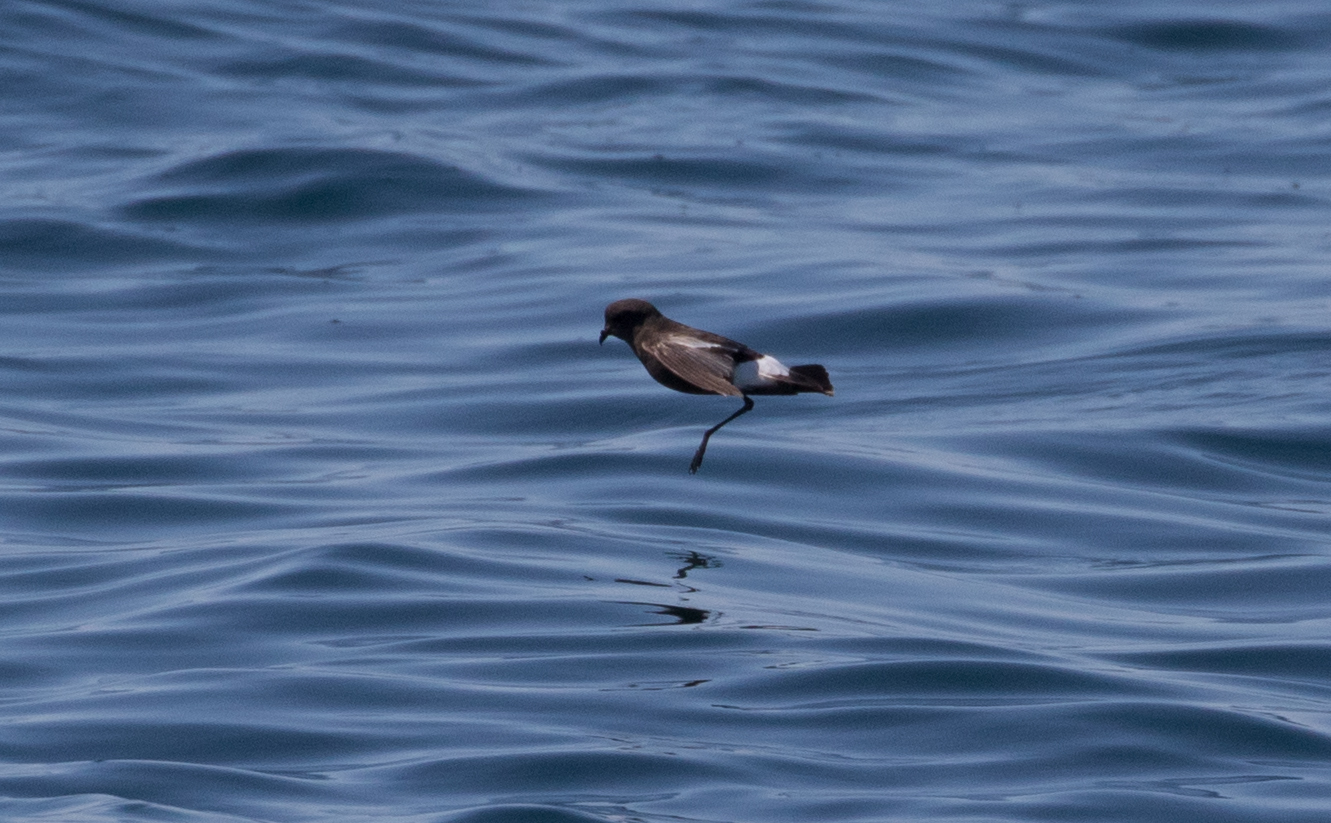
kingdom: Animalia
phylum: Chordata
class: Aves
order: Procellariiformes
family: Hydrobatidae
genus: Oceanites
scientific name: Oceanites oceanicus
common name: Wilson's storm petrel
